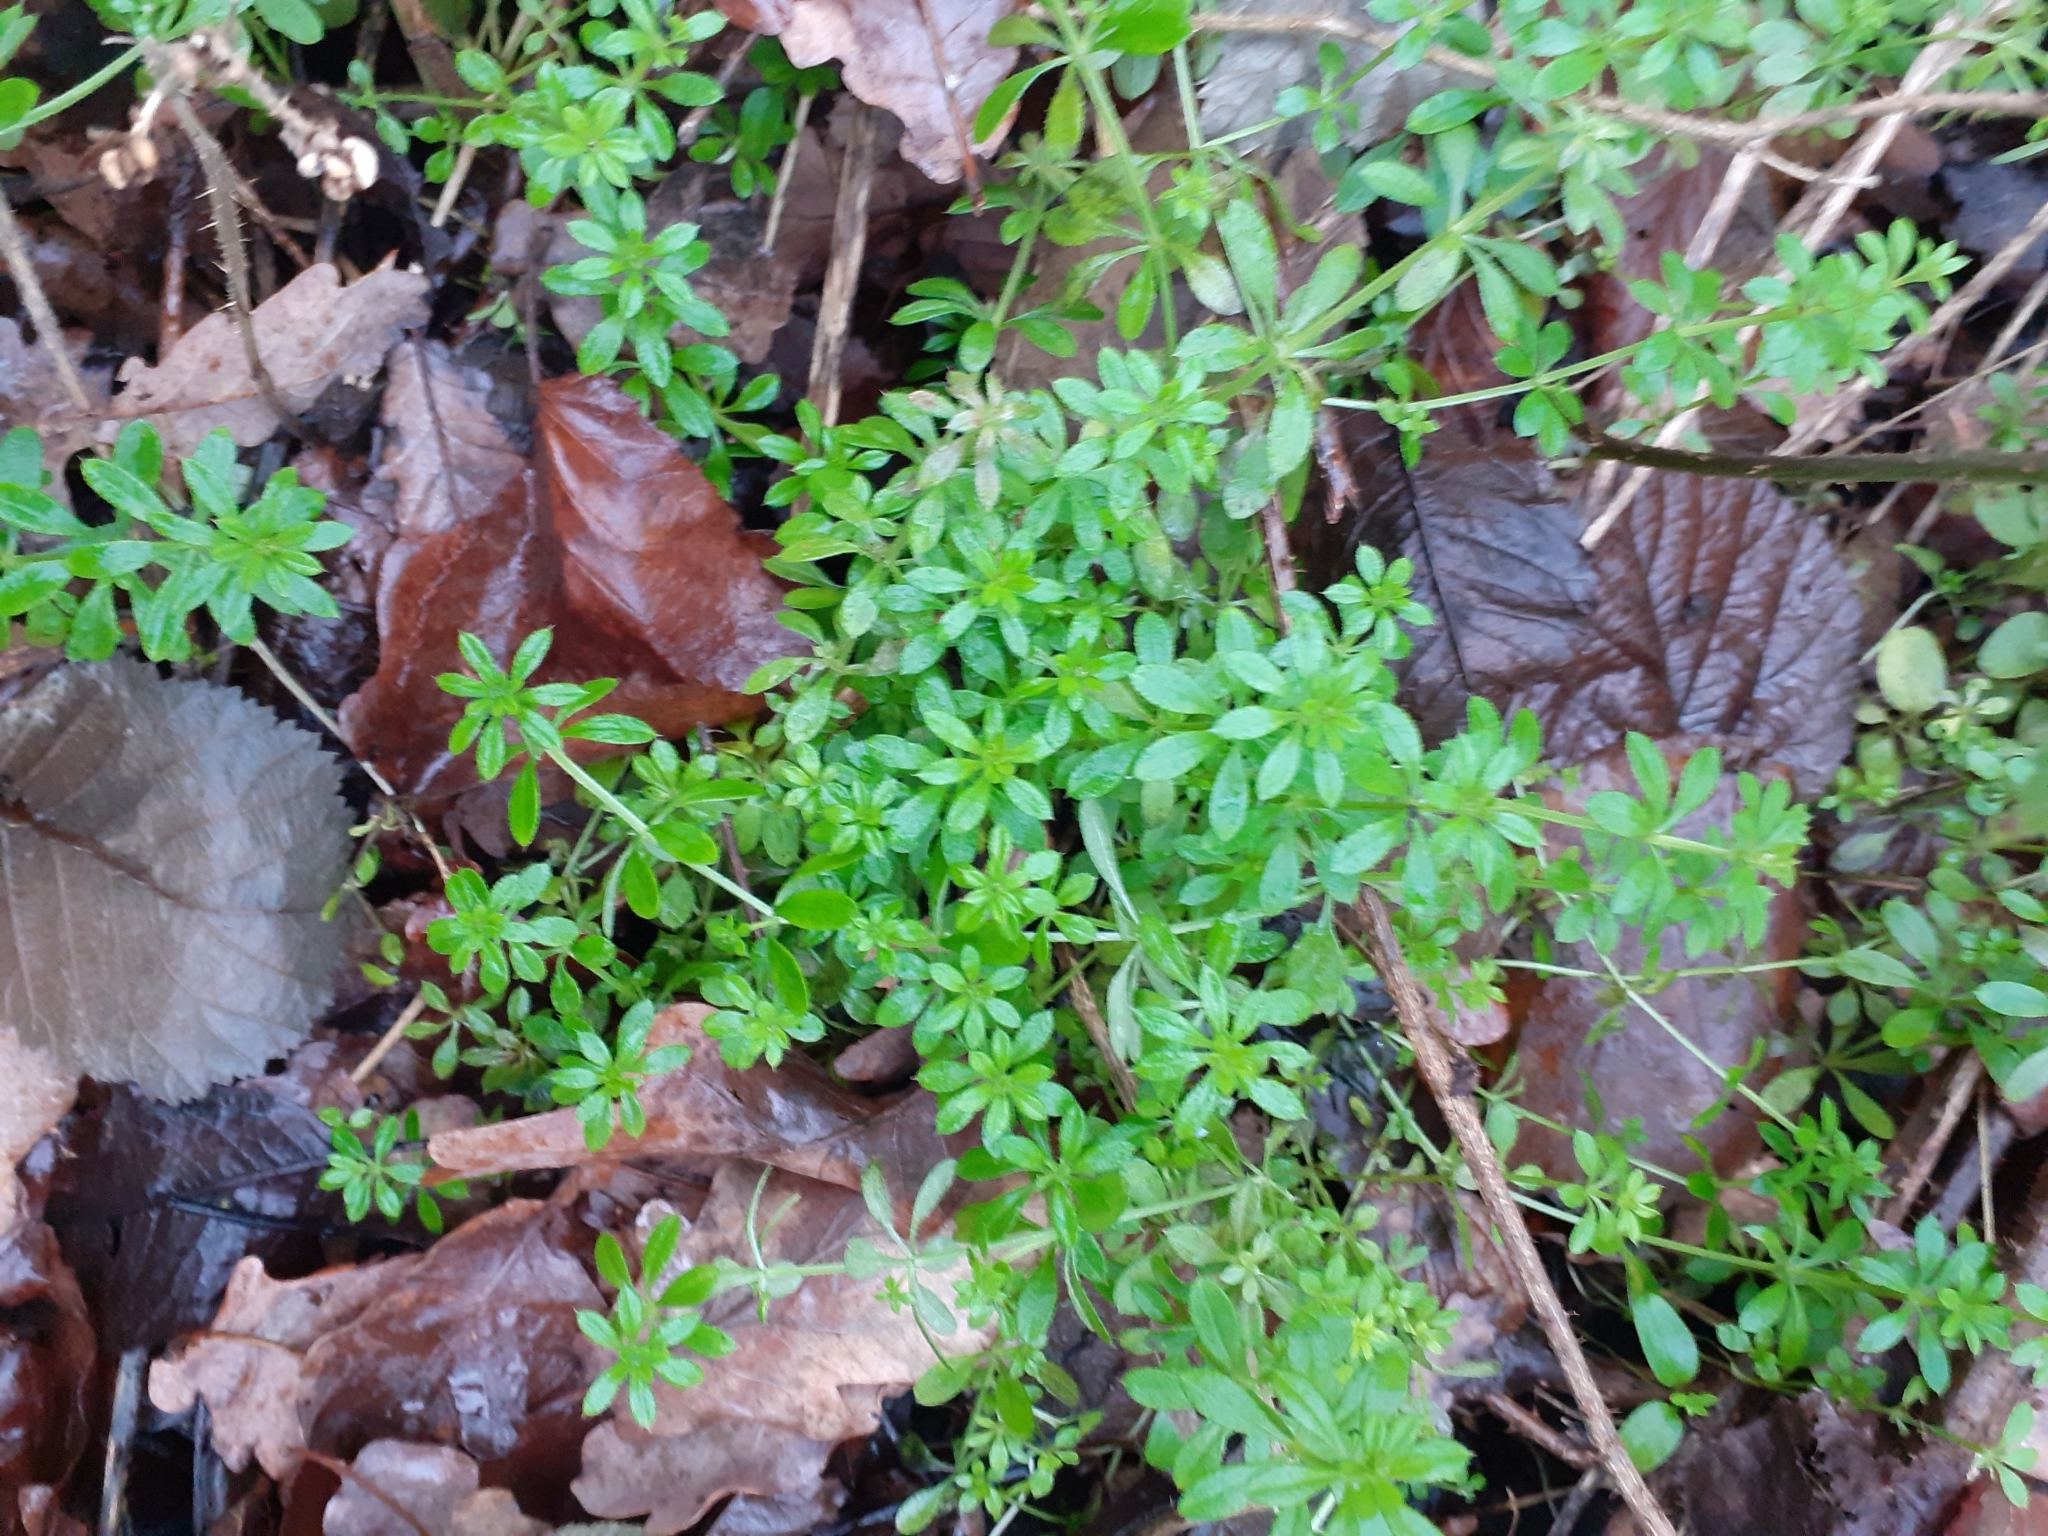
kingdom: Plantae
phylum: Tracheophyta
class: Magnoliopsida
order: Gentianales
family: Rubiaceae
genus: Galium
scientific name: Galium aparine
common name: Cleavers
